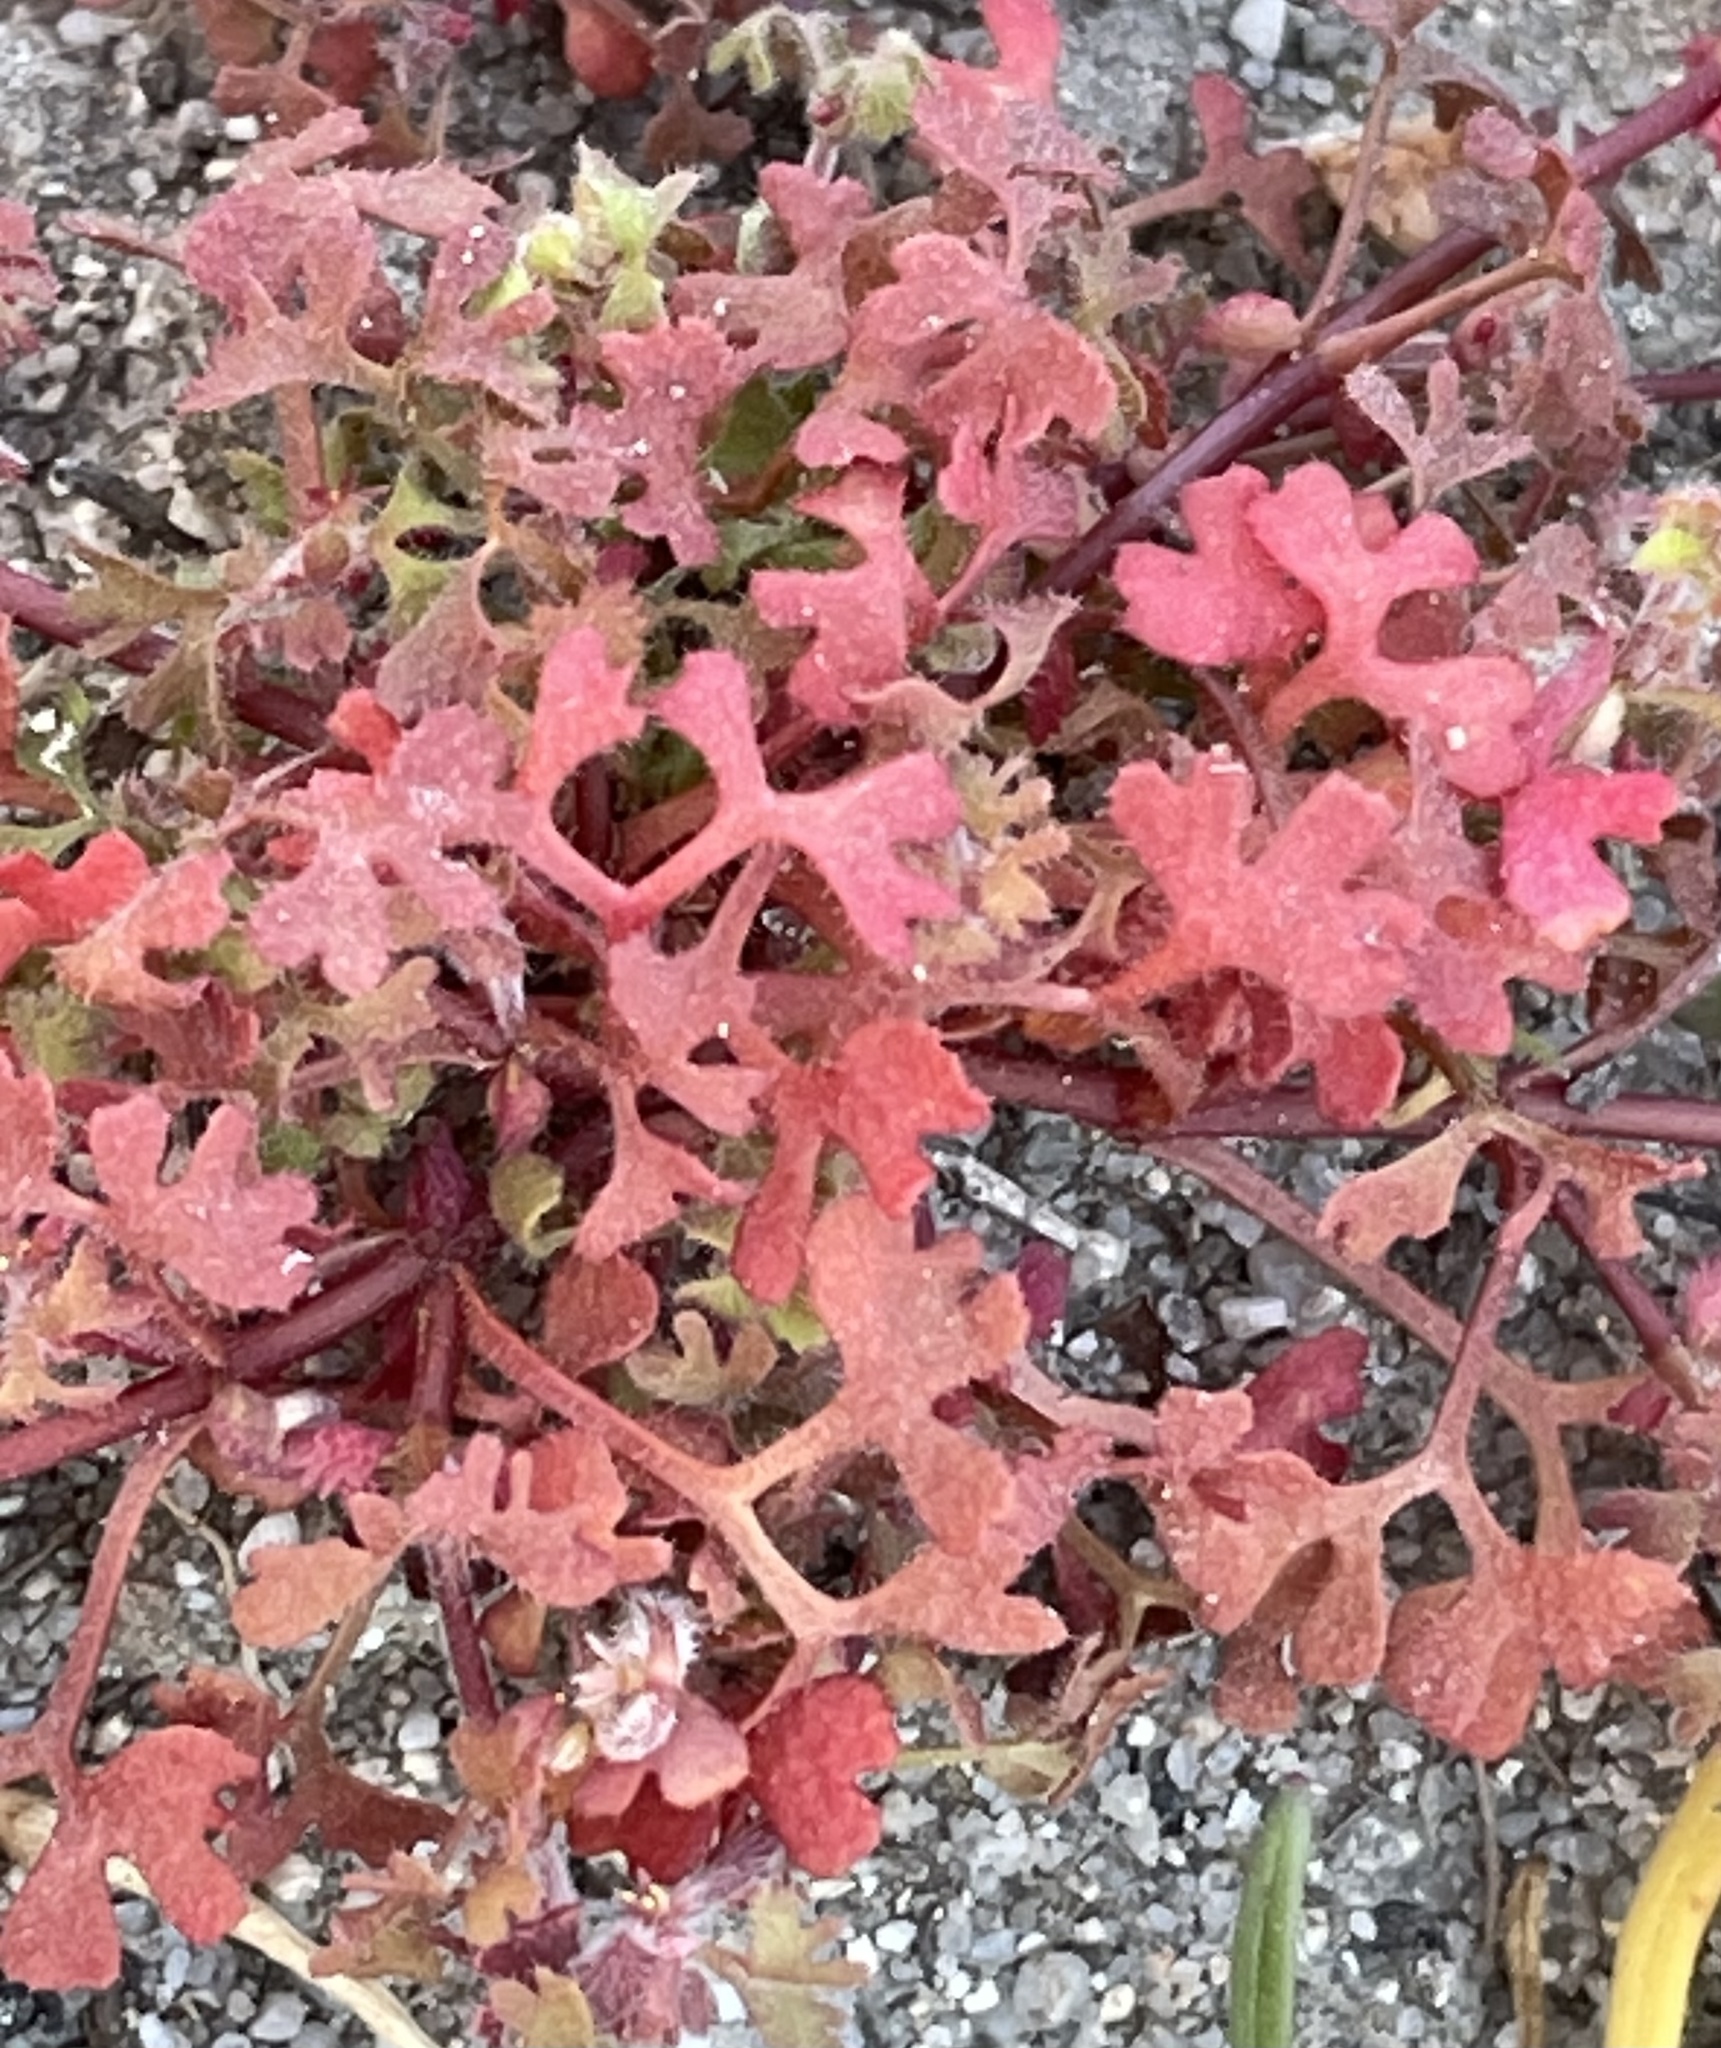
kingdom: Plantae
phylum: Tracheophyta
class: Magnoliopsida
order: Caryophyllales
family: Polygonaceae
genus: Pterostegia
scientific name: Pterostegia drymarioides
